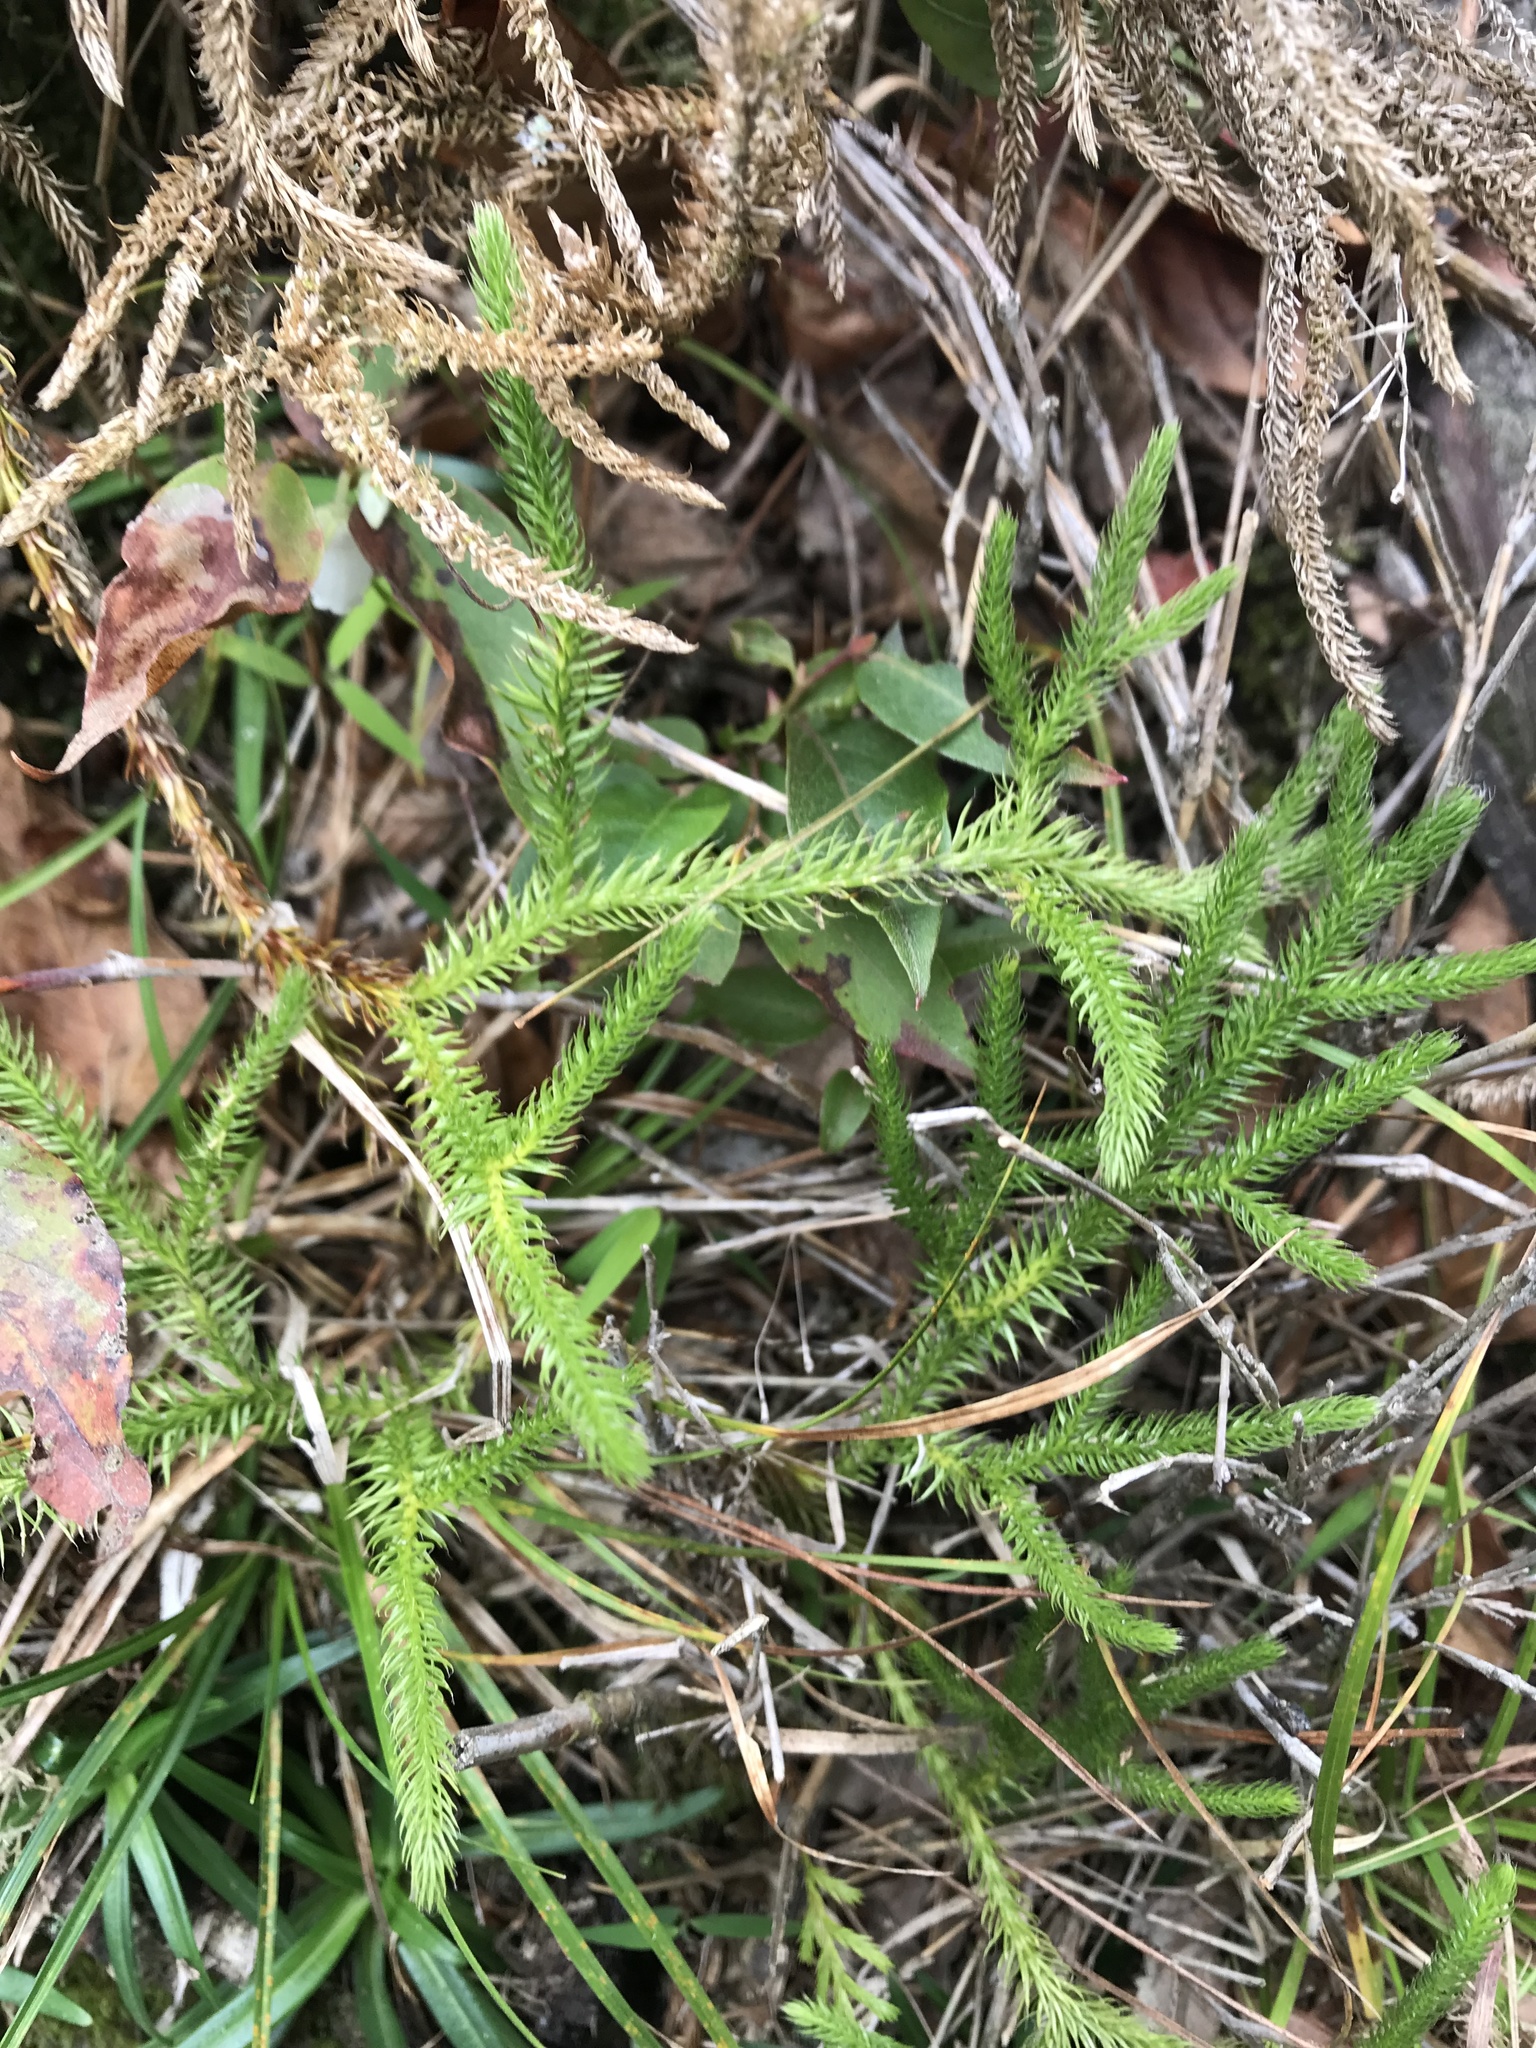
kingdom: Plantae
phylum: Tracheophyta
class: Lycopodiopsida
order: Lycopodiales
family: Lycopodiaceae
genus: Lycopodium
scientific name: Lycopodium clavatum
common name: Stag's-horn clubmoss
